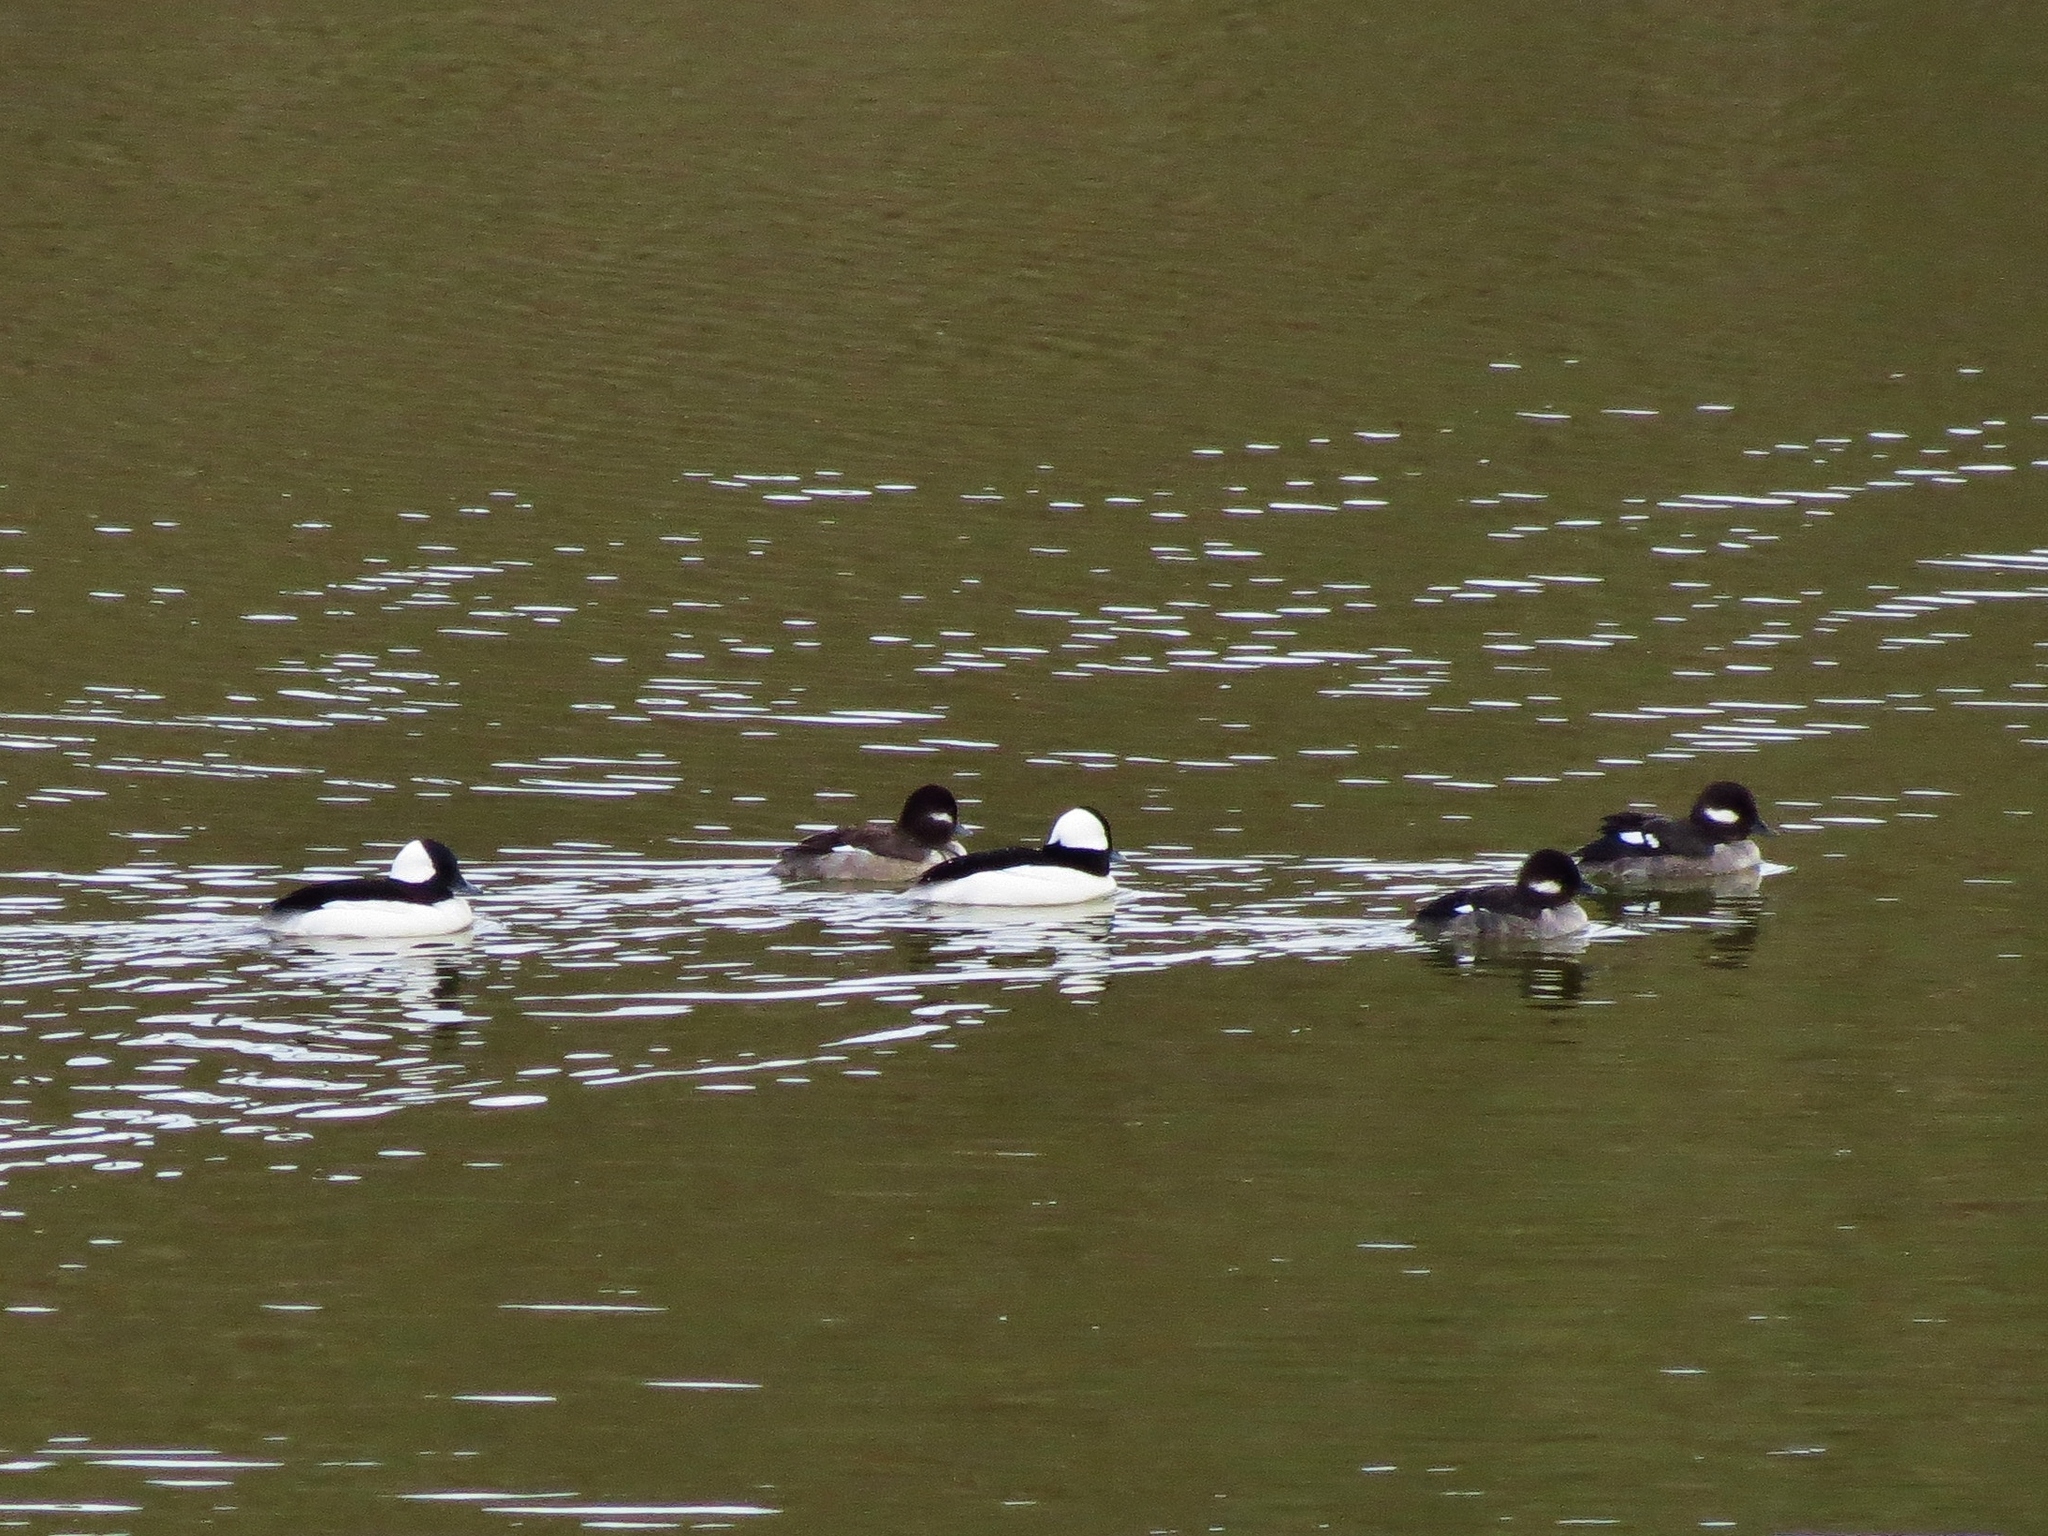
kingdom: Animalia
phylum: Chordata
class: Aves
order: Anseriformes
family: Anatidae
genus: Bucephala
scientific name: Bucephala albeola
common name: Bufflehead
